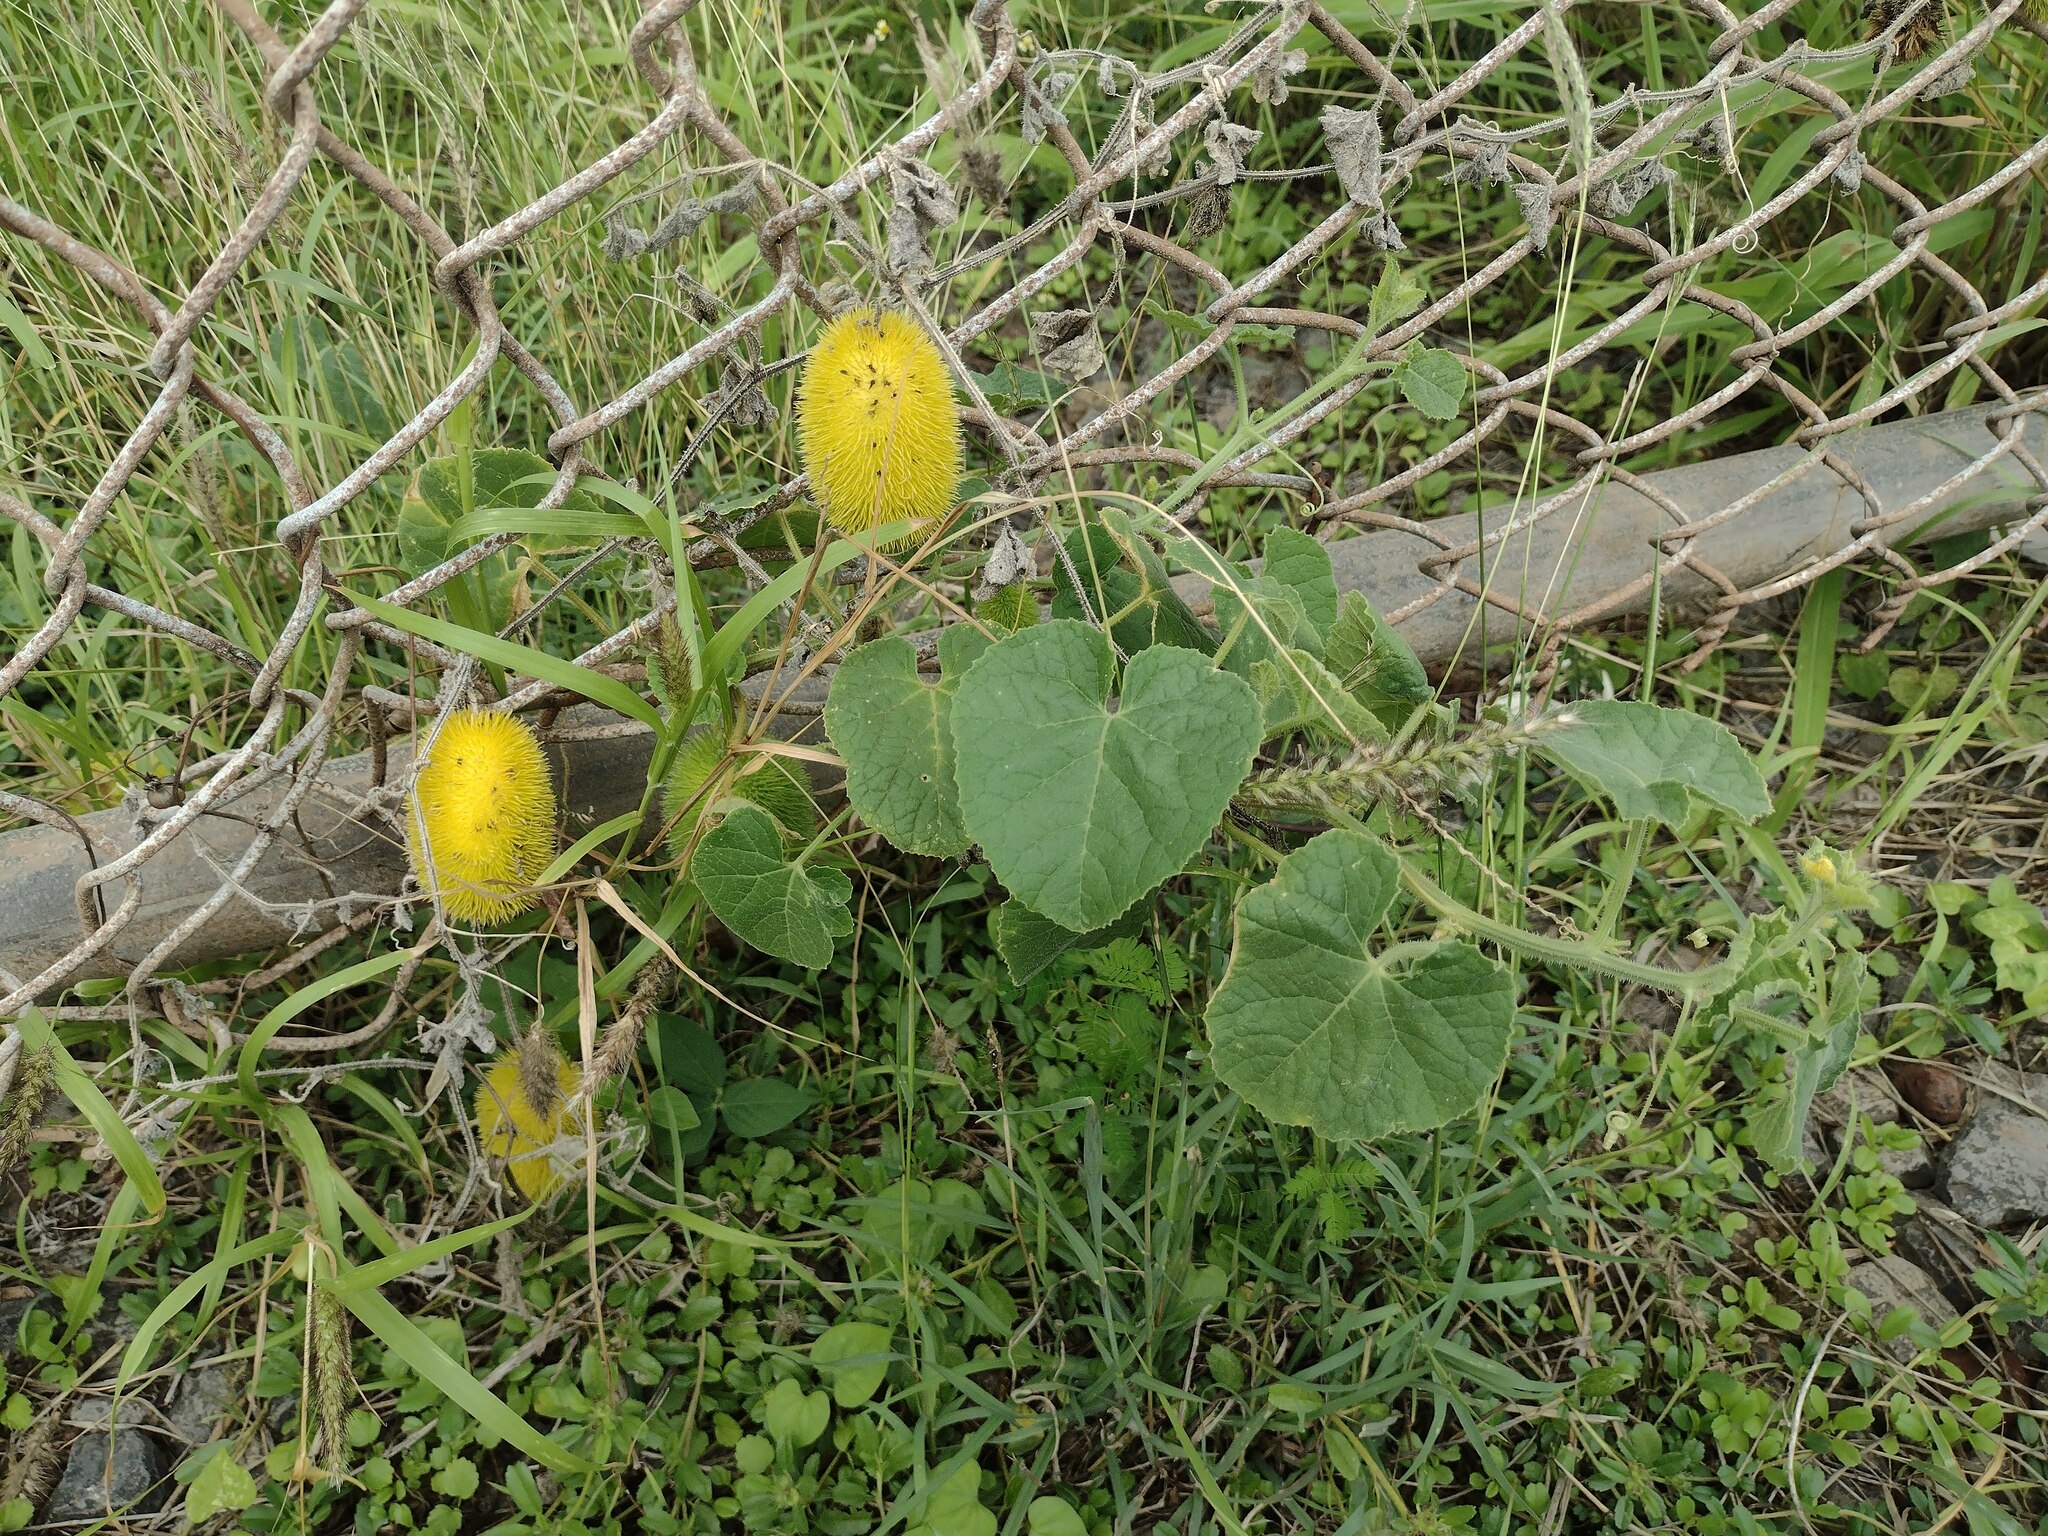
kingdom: Plantae
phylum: Tracheophyta
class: Magnoliopsida
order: Cucurbitales
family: Cucurbitaceae
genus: Cucumis
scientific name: Cucumis dipsaceus
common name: Hedgehog gourd
